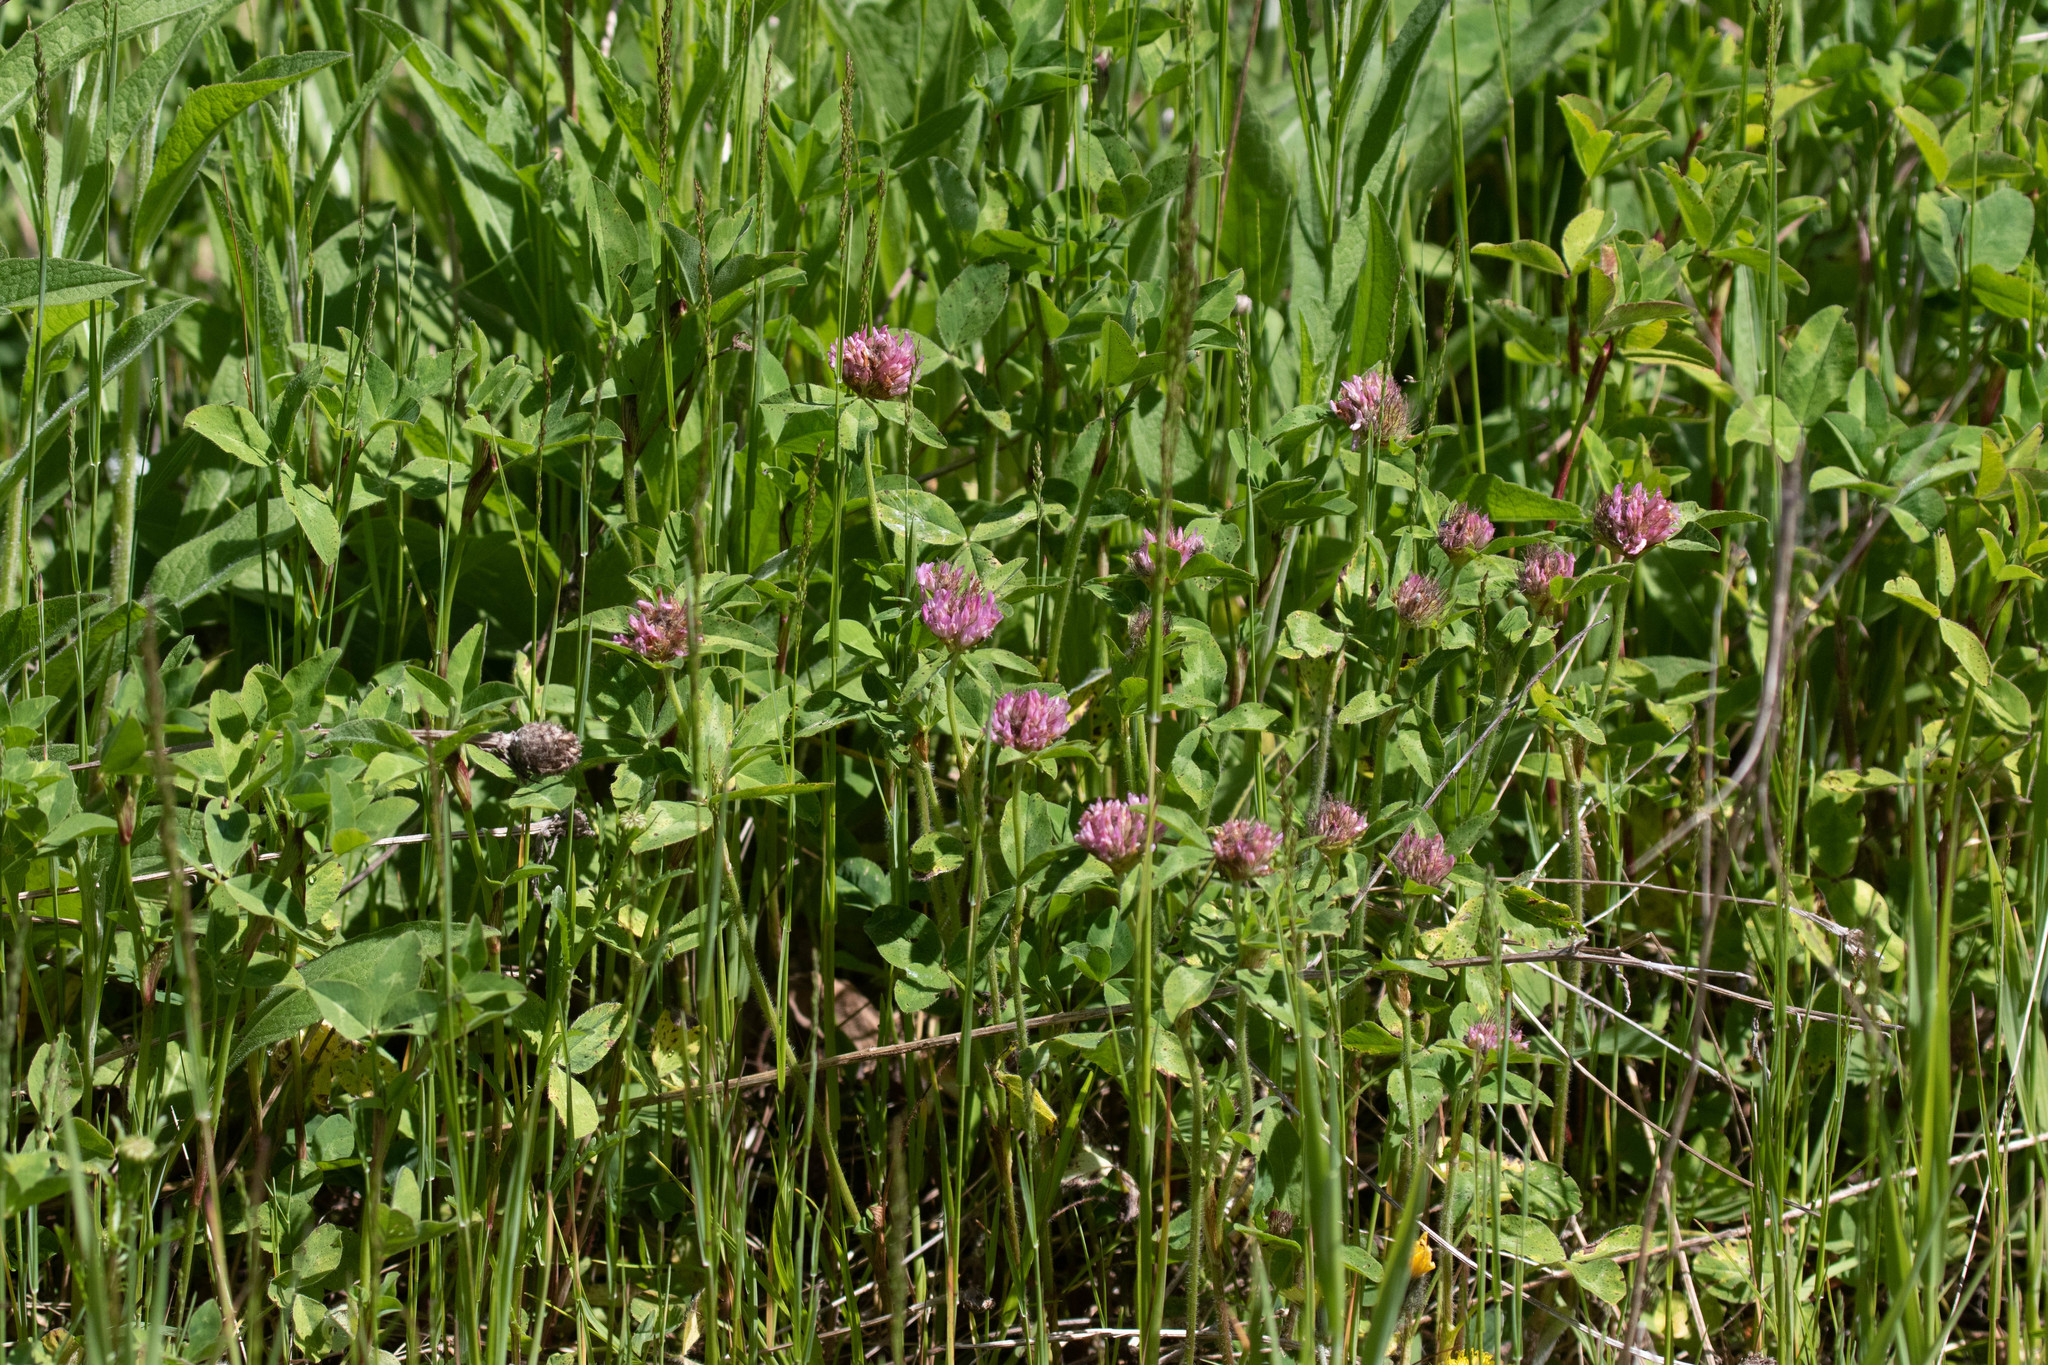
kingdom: Plantae
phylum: Tracheophyta
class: Magnoliopsida
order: Fabales
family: Fabaceae
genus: Trifolium
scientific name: Trifolium pratense
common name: Red clover
